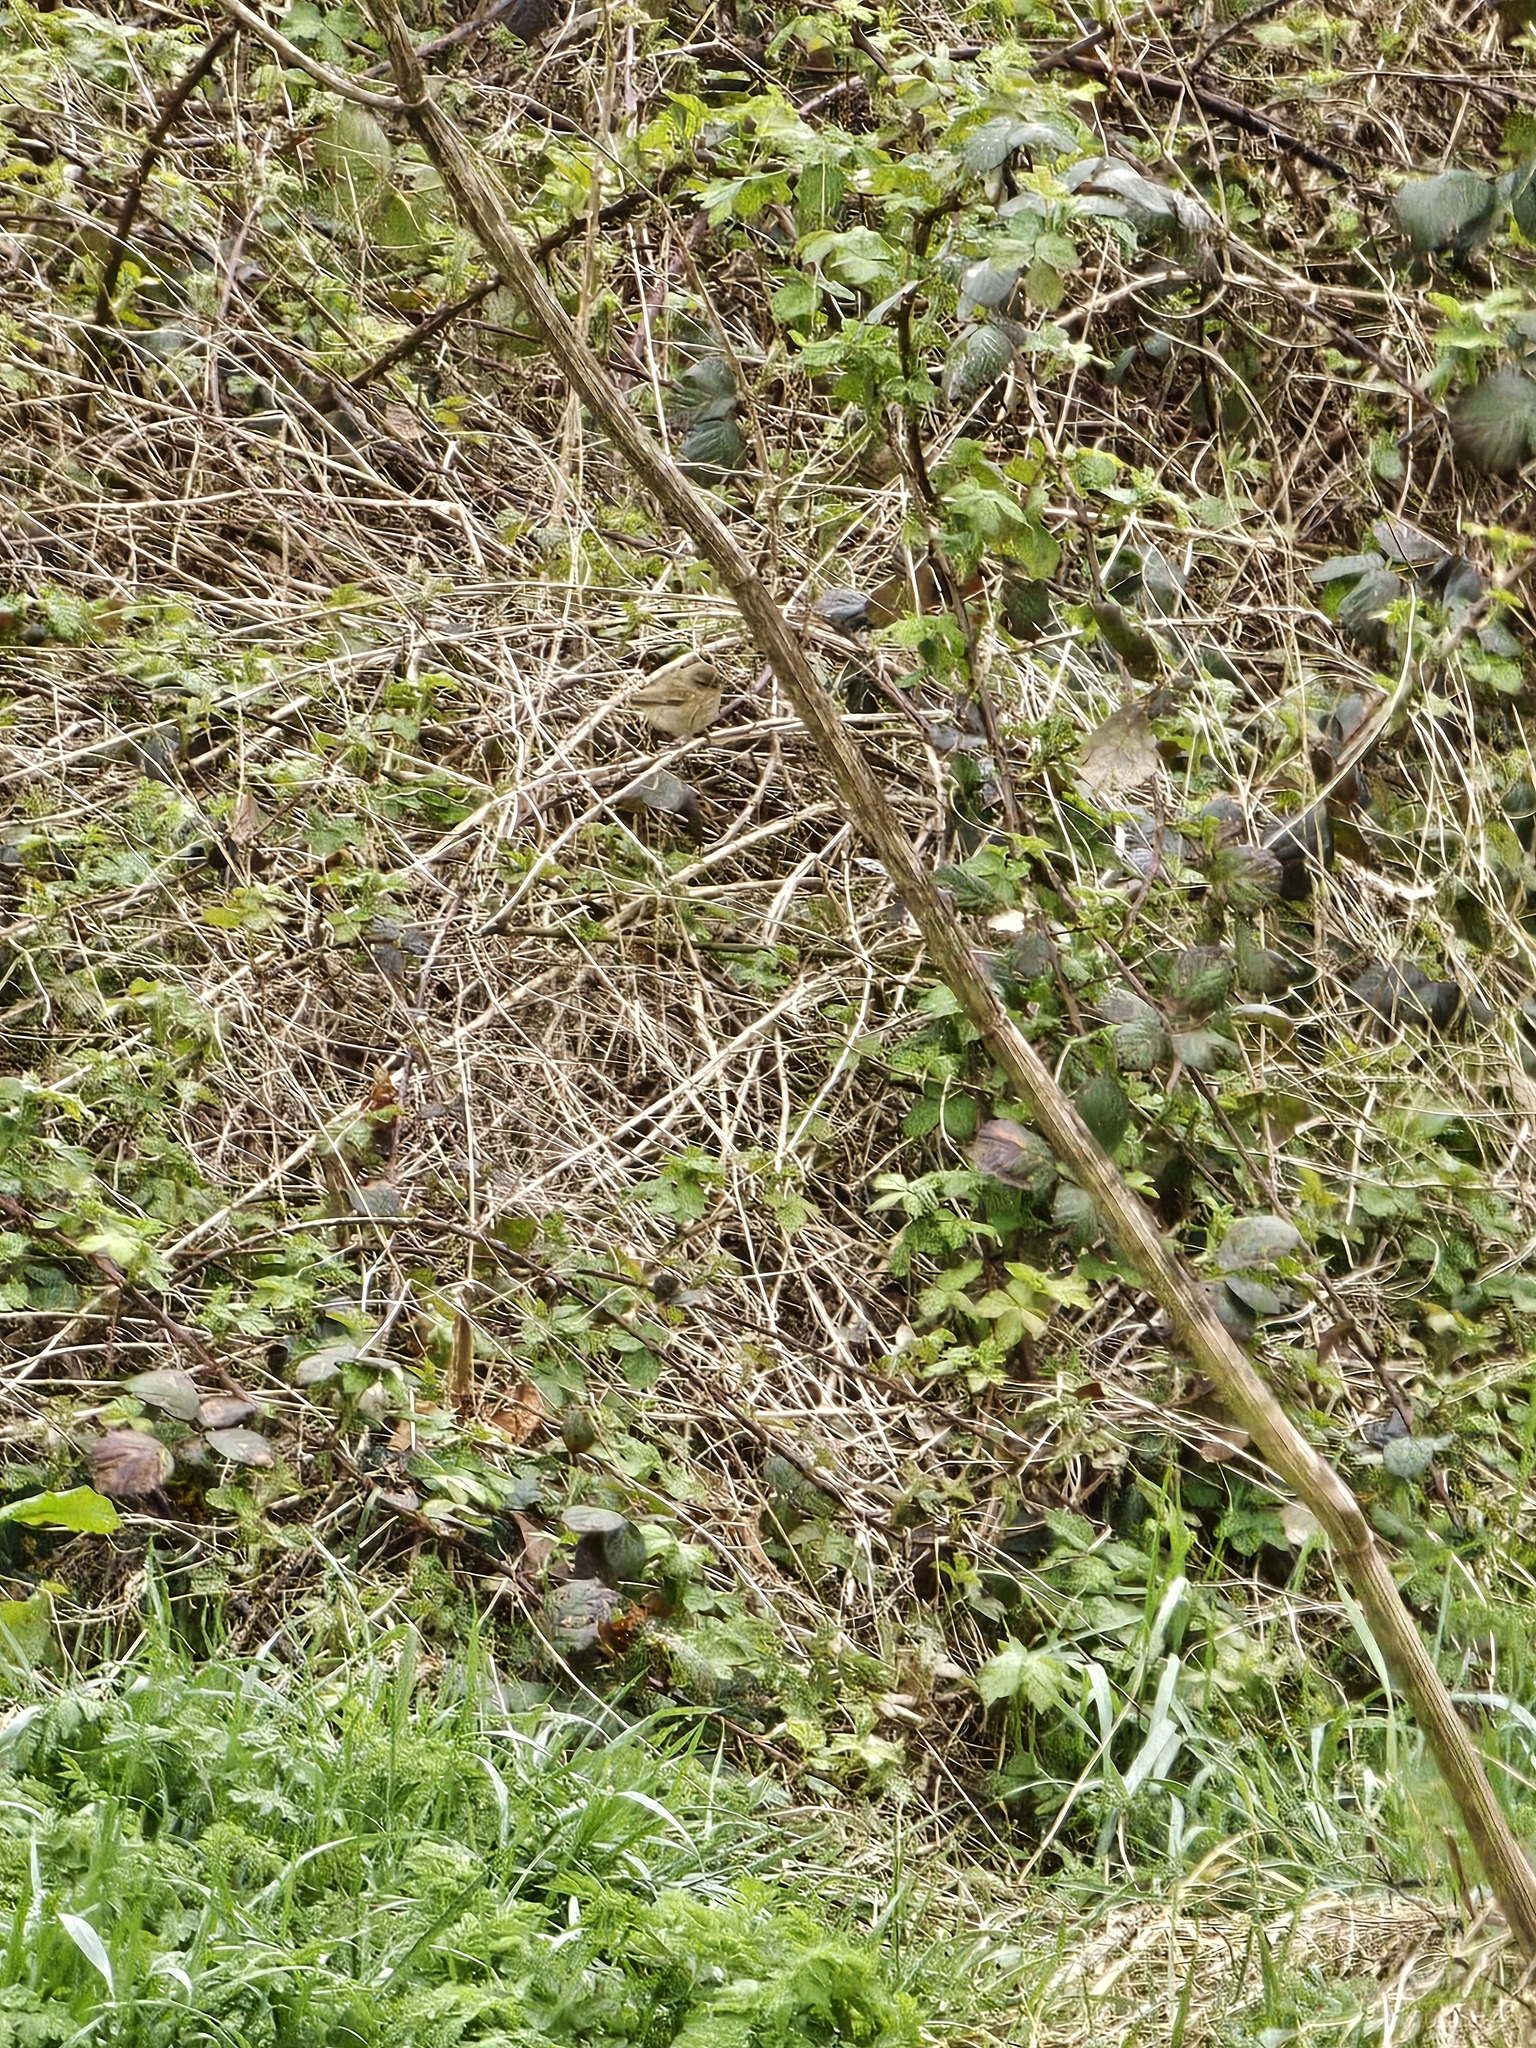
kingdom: Animalia
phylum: Chordata
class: Aves
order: Passeriformes
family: Phylloscopidae
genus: Phylloscopus
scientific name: Phylloscopus collybita
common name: Common chiffchaff
